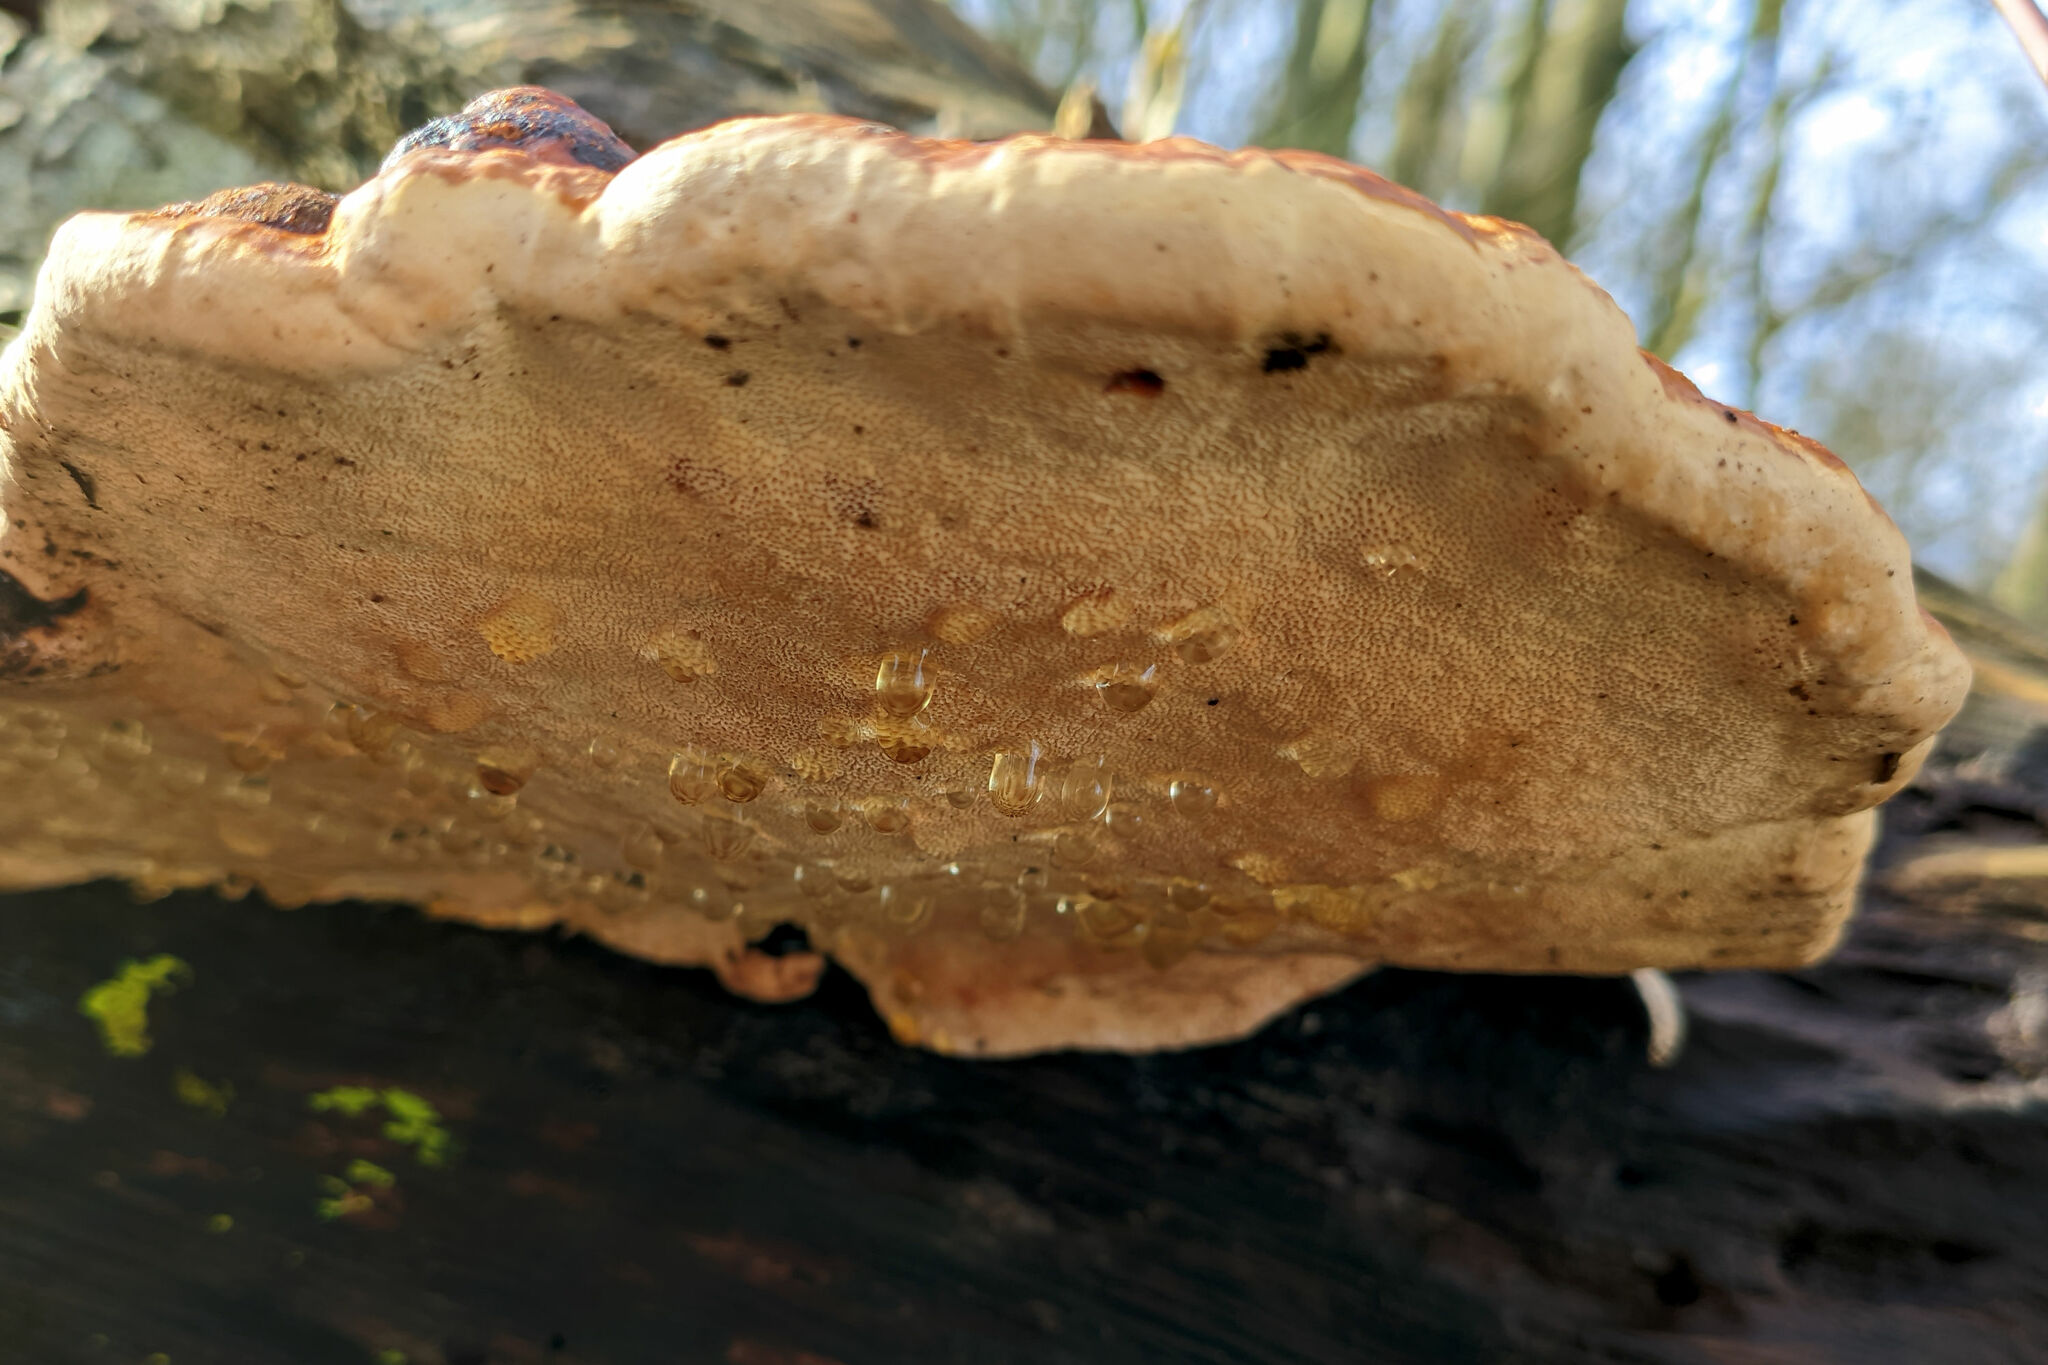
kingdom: Fungi
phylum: Basidiomycota
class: Agaricomycetes
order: Polyporales
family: Fomitopsidaceae
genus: Fomitopsis
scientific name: Fomitopsis pinicola
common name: Red-belted bracket
